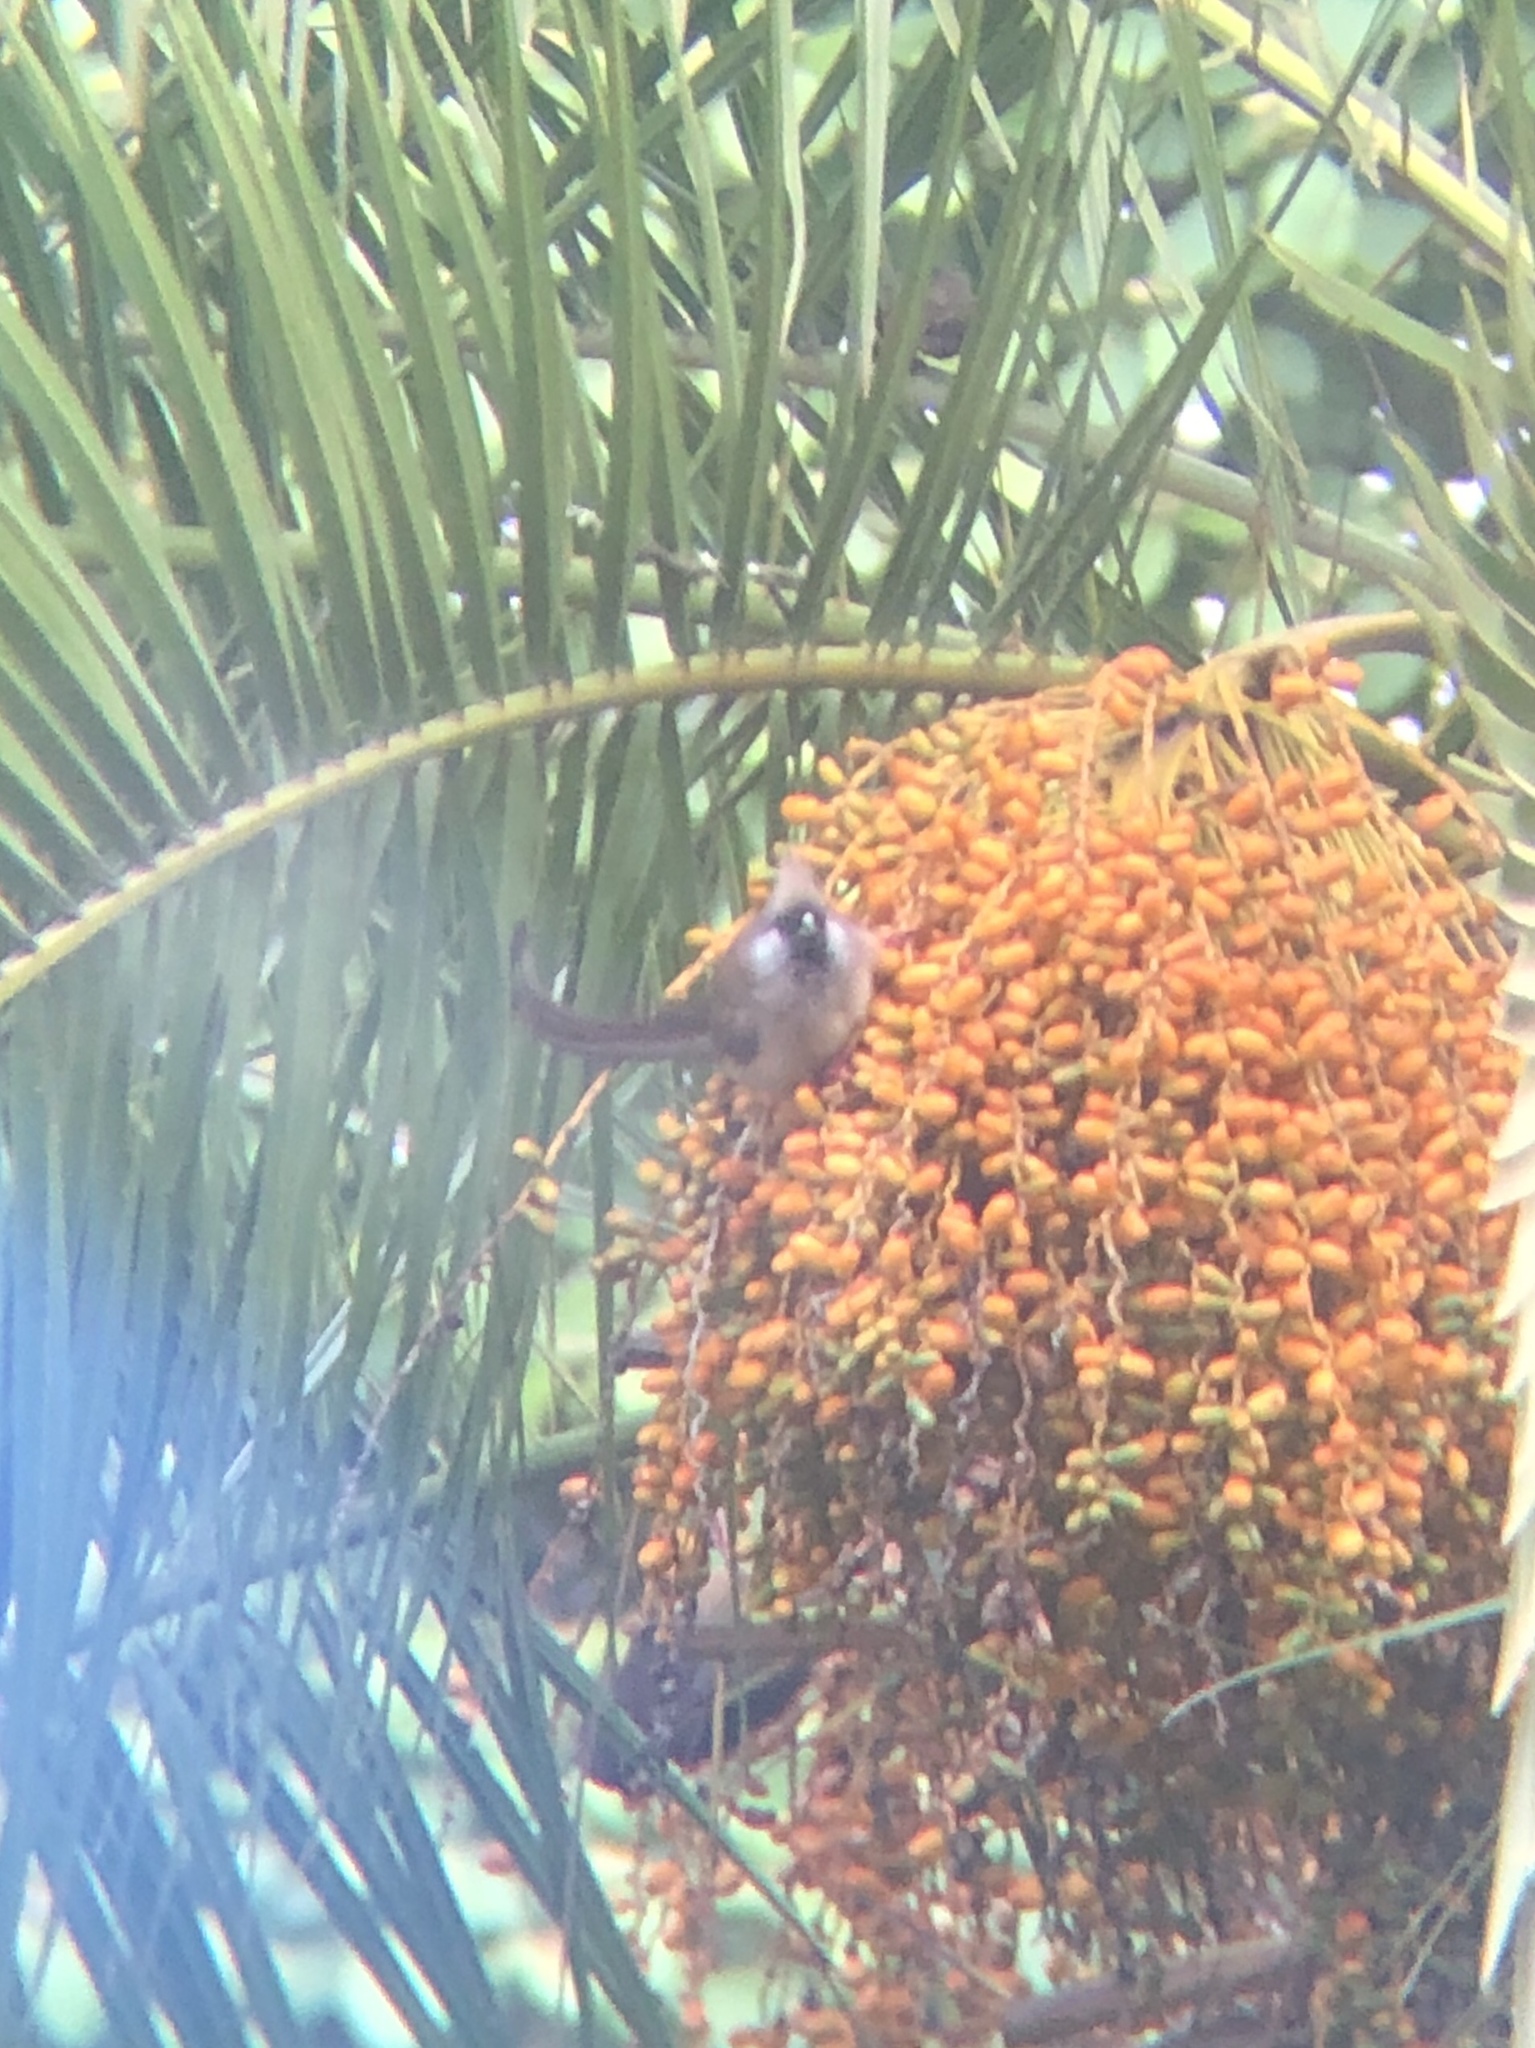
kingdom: Animalia
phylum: Chordata
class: Aves
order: Coliiformes
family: Coliidae
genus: Colius
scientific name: Colius striatus
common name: Speckled mousebird
